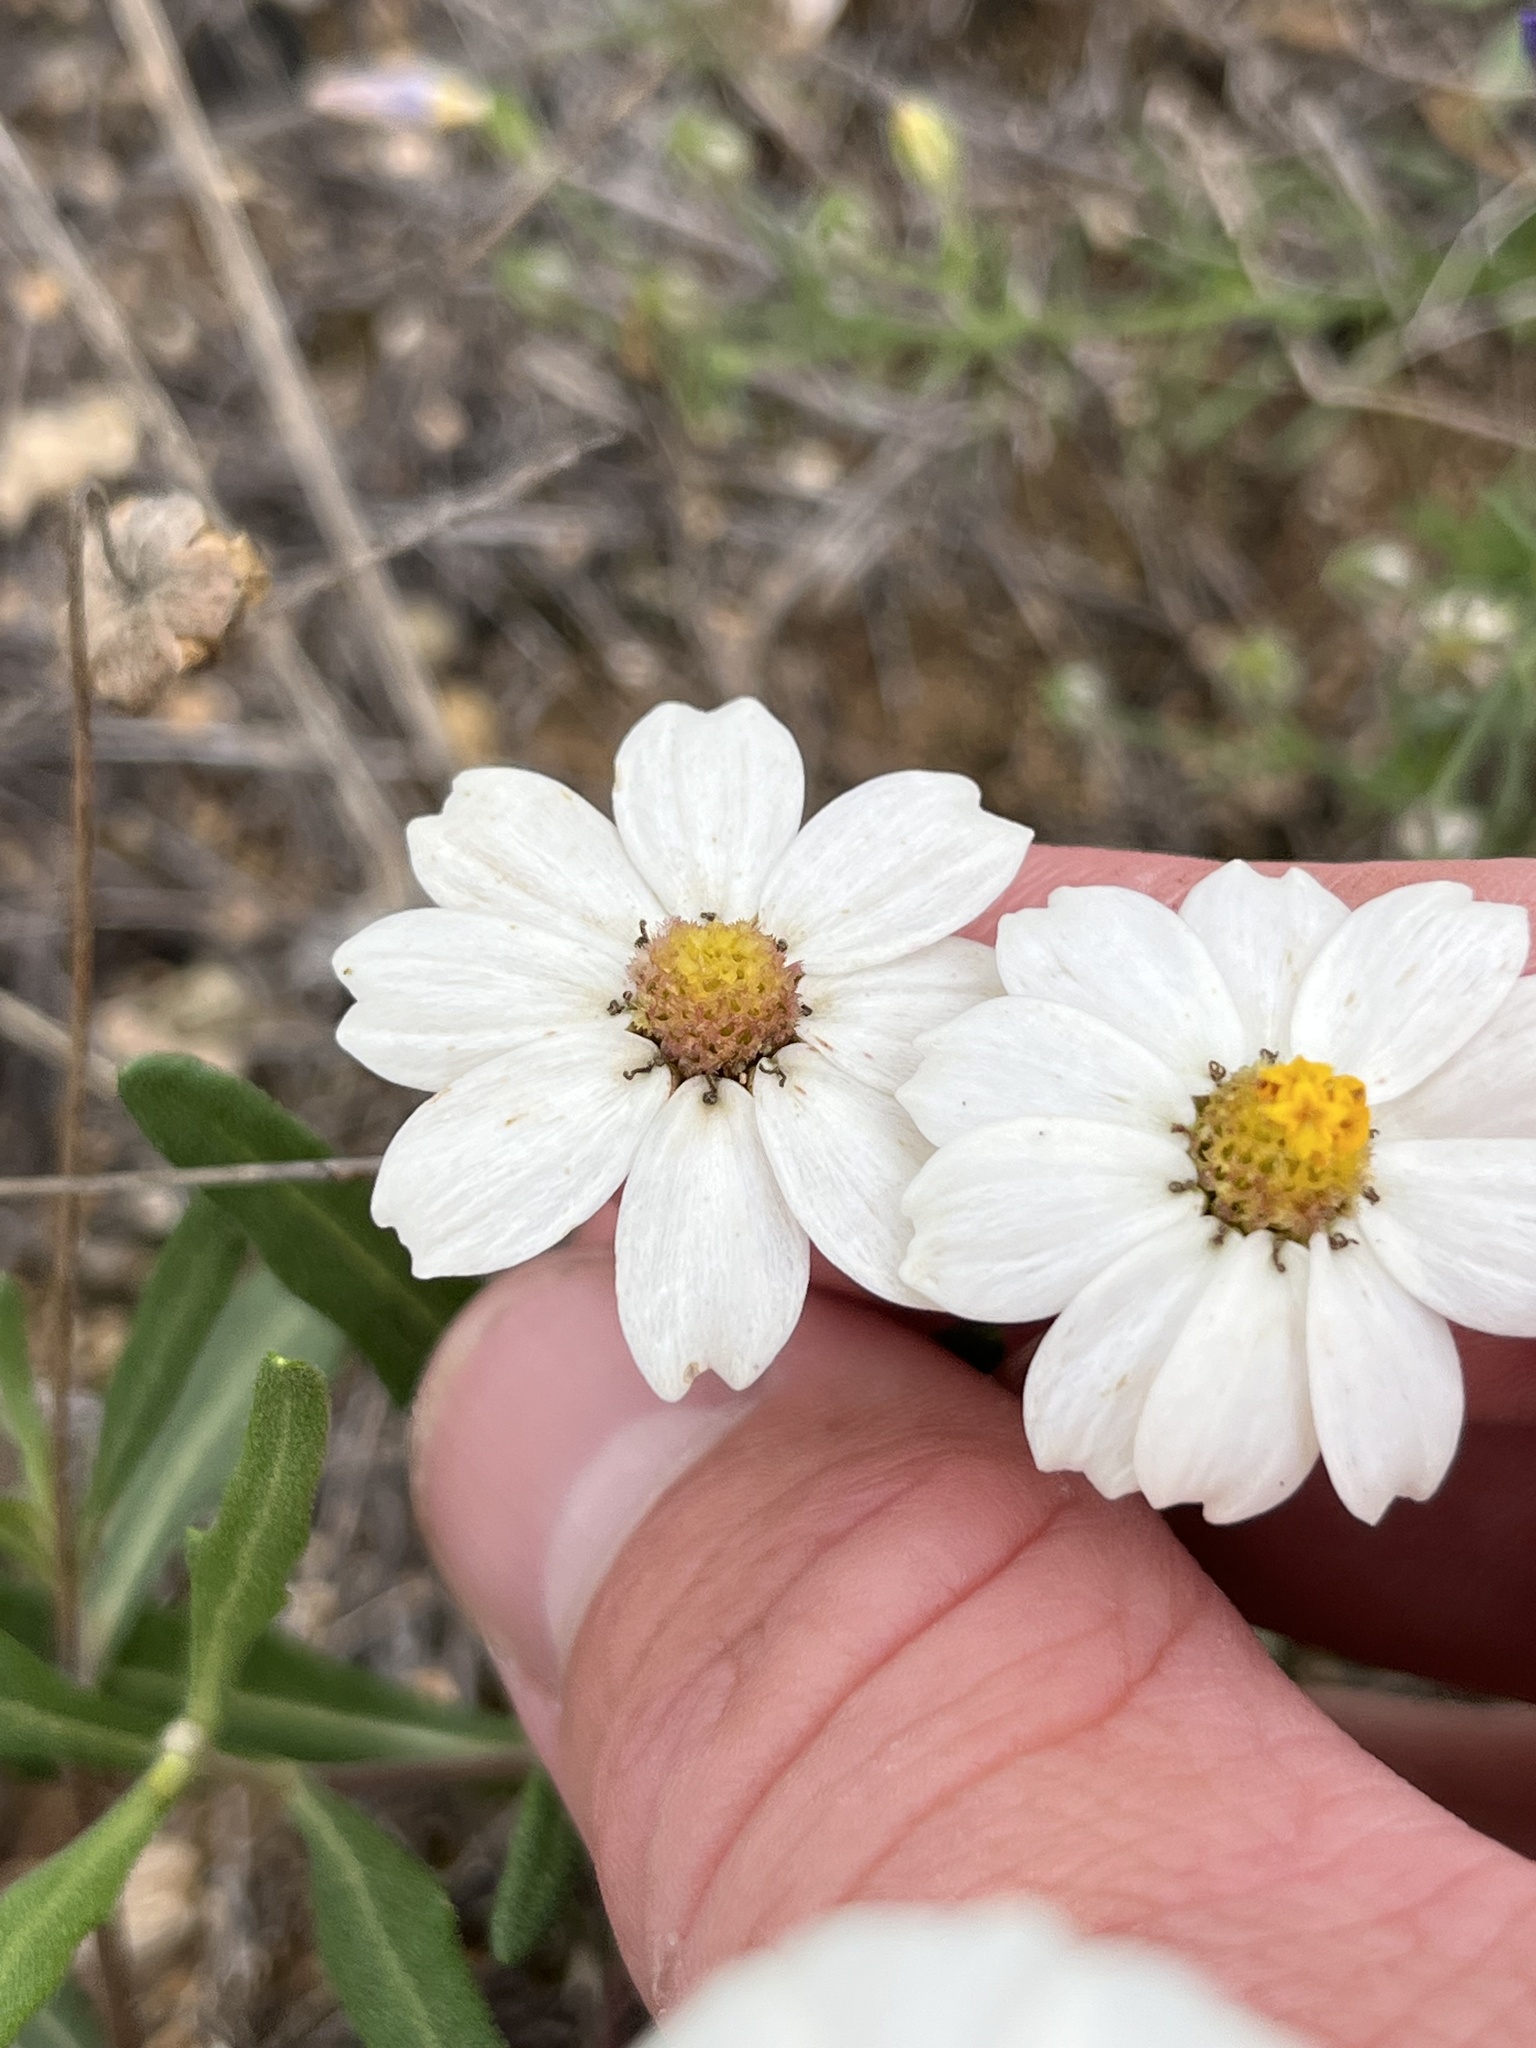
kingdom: Plantae
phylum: Tracheophyta
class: Magnoliopsida
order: Asterales
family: Asteraceae
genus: Melampodium
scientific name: Melampodium leucanthum
